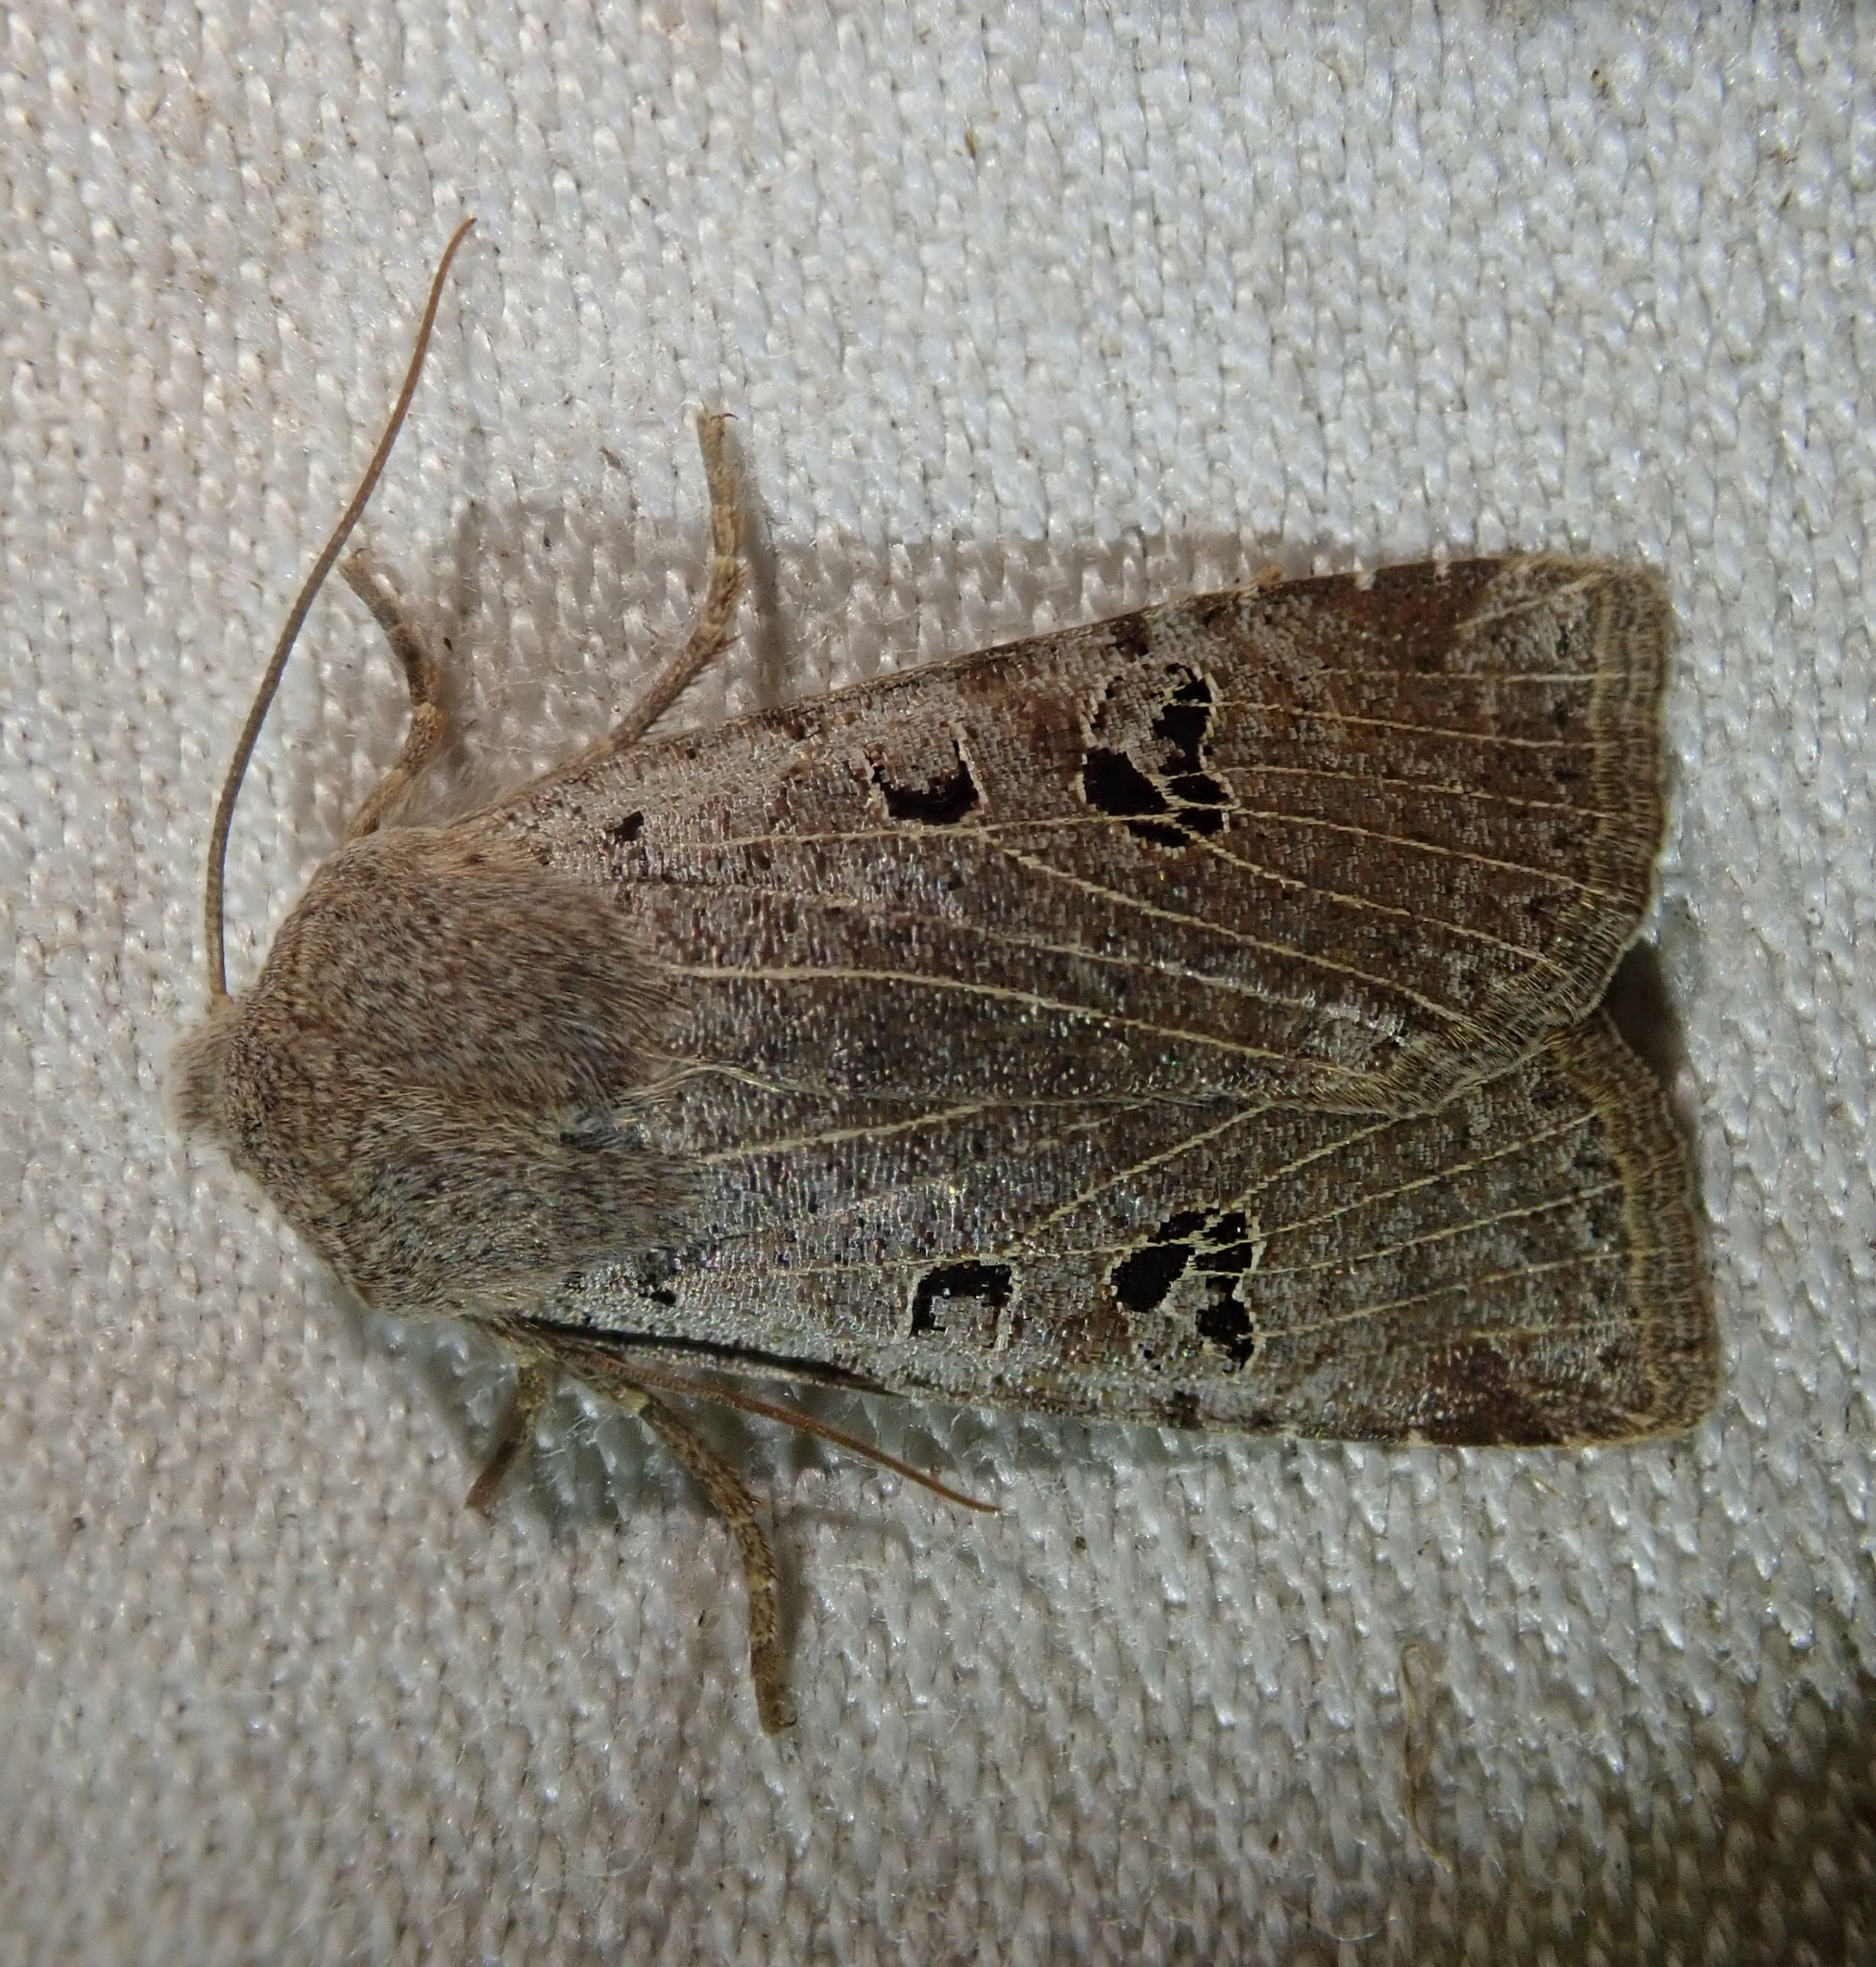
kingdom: Animalia
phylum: Arthropoda
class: Insecta
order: Lepidoptera
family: Noctuidae
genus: Conistra
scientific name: Conistra rubiginosa
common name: Black-spotted chestnut
